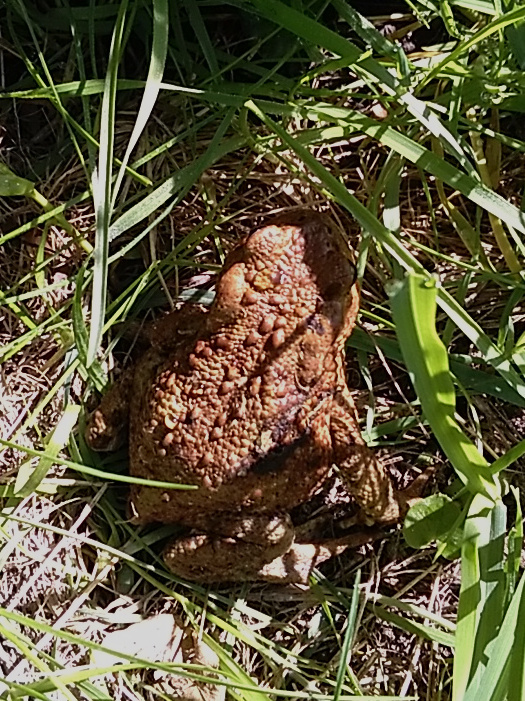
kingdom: Animalia
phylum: Chordata
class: Amphibia
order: Anura
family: Bufonidae
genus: Bufo
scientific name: Bufo bufo
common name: Common toad
